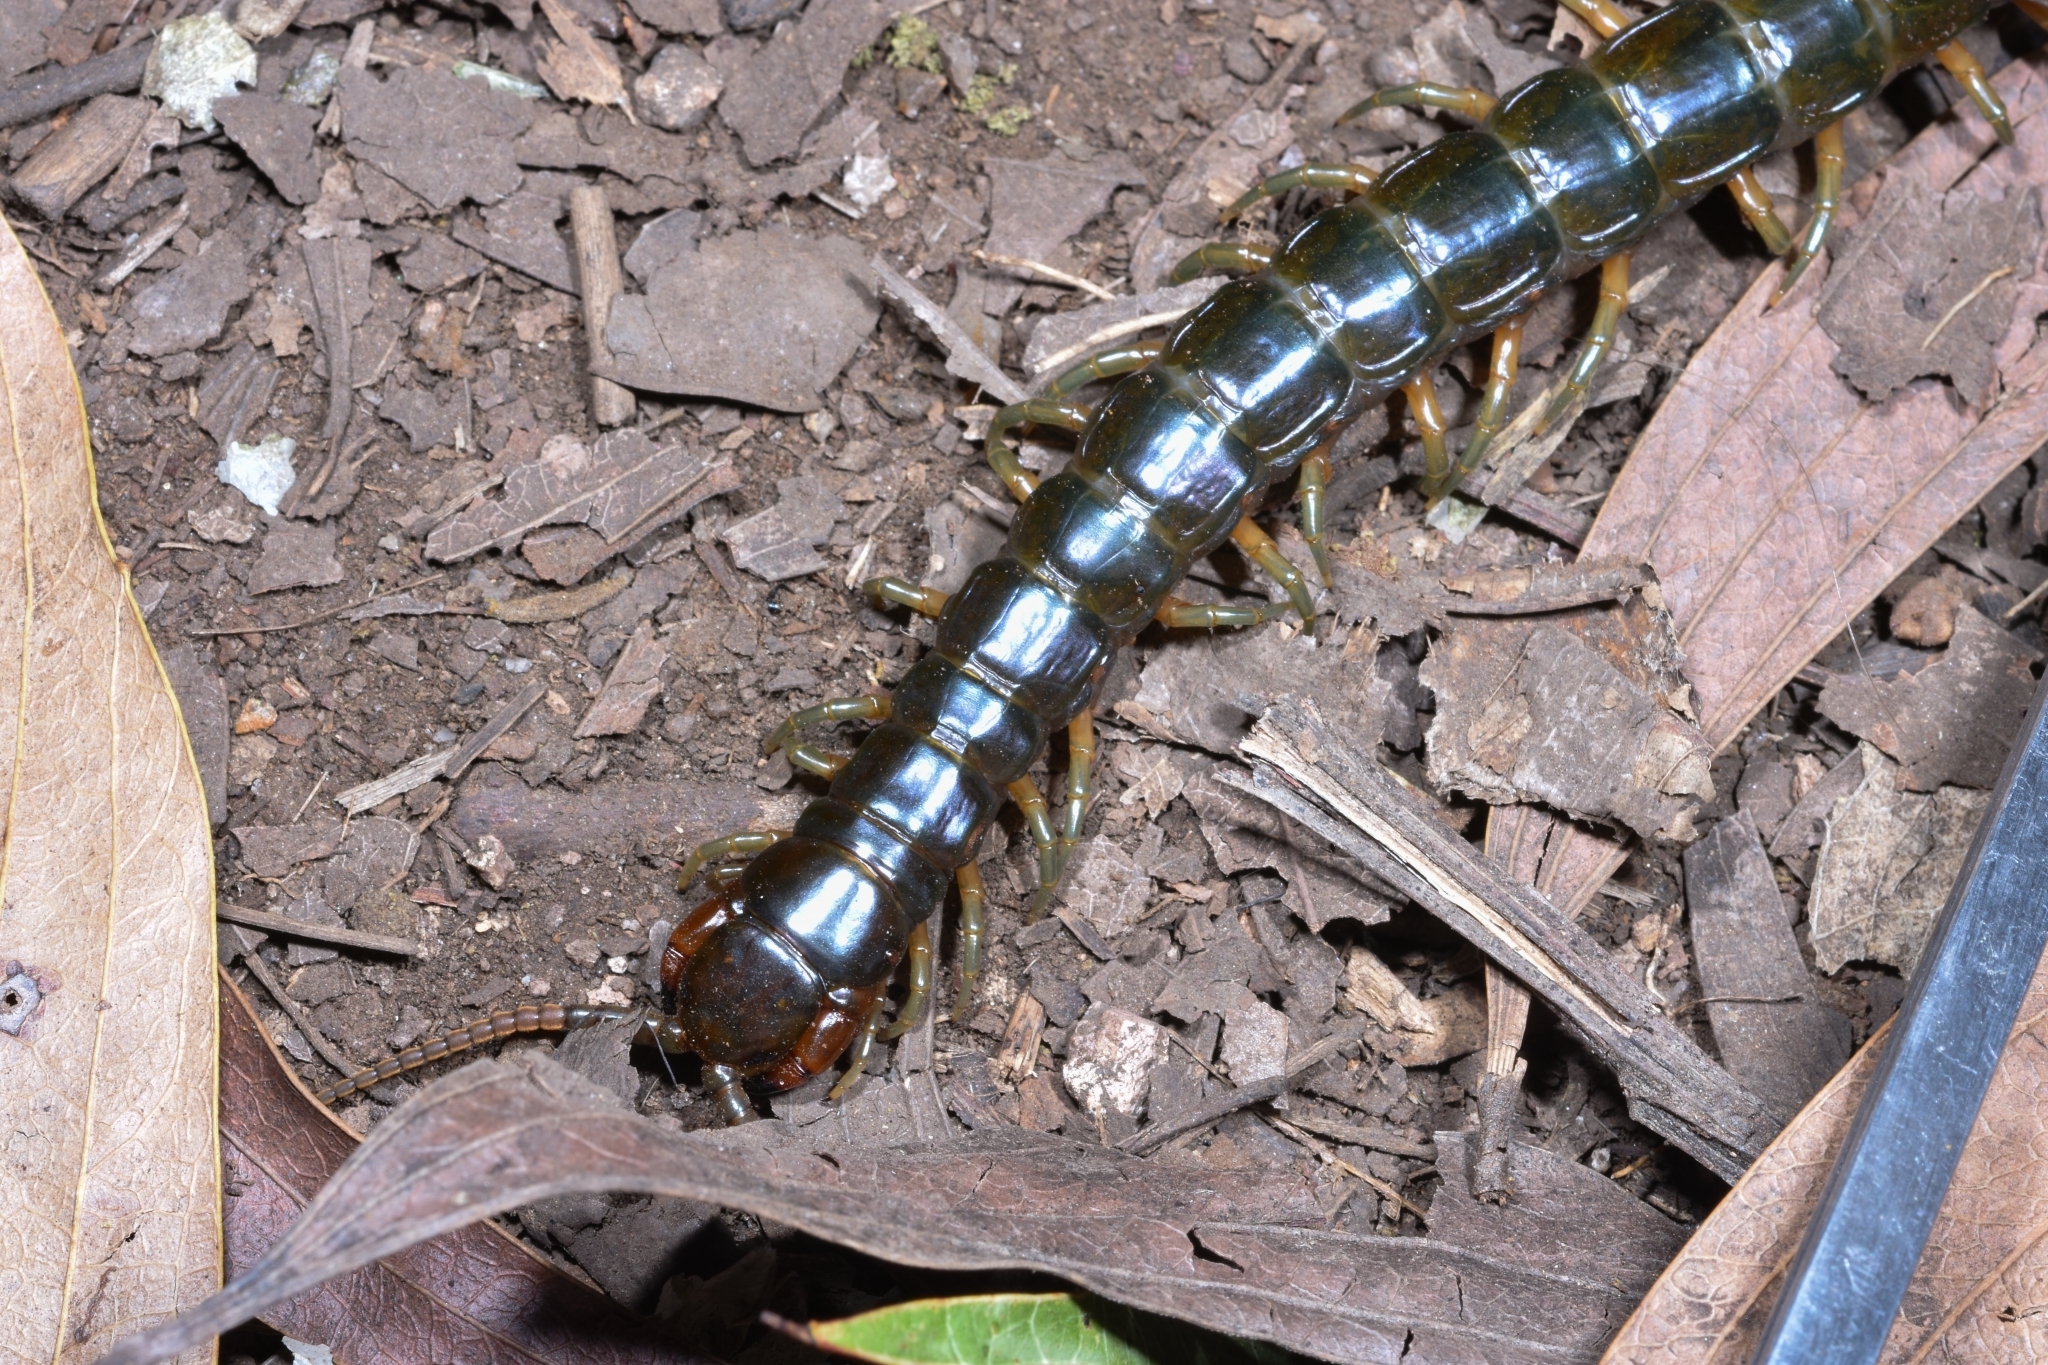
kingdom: Animalia
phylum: Arthropoda
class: Chilopoda
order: Scolopendromorpha
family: Scolopendridae
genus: Ethmostigmus
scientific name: Ethmostigmus rubripes
